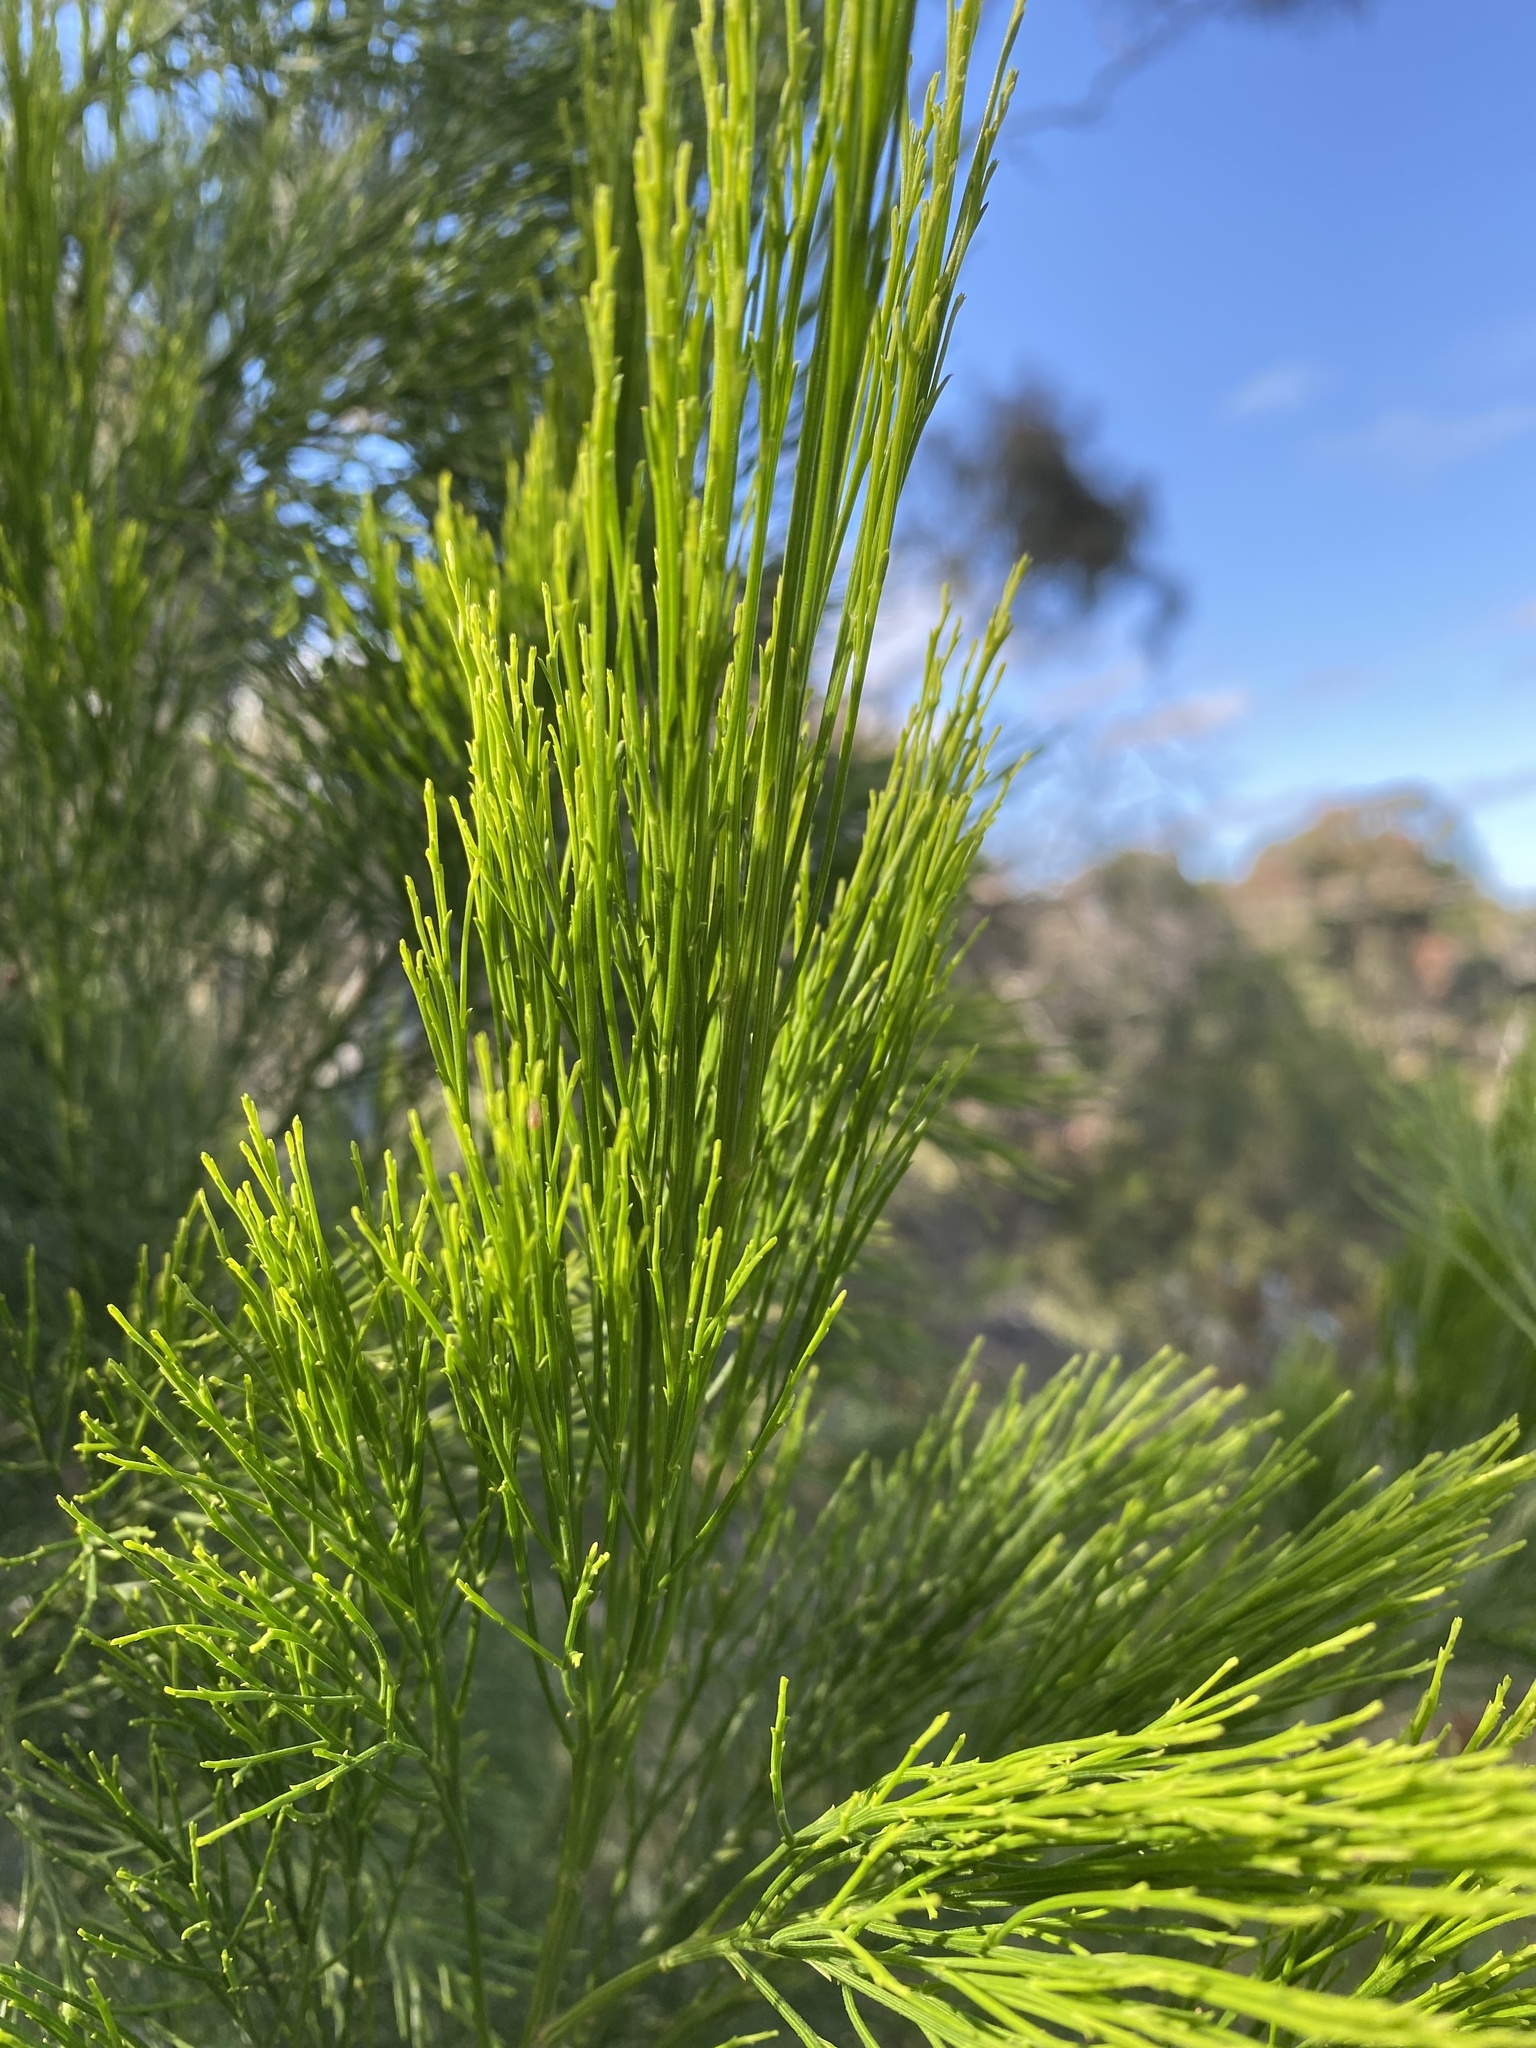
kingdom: Plantae
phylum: Tracheophyta
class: Magnoliopsida
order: Santalales
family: Santalaceae
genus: Exocarpos
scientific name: Exocarpos cupressiformis
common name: Cherry ballart
